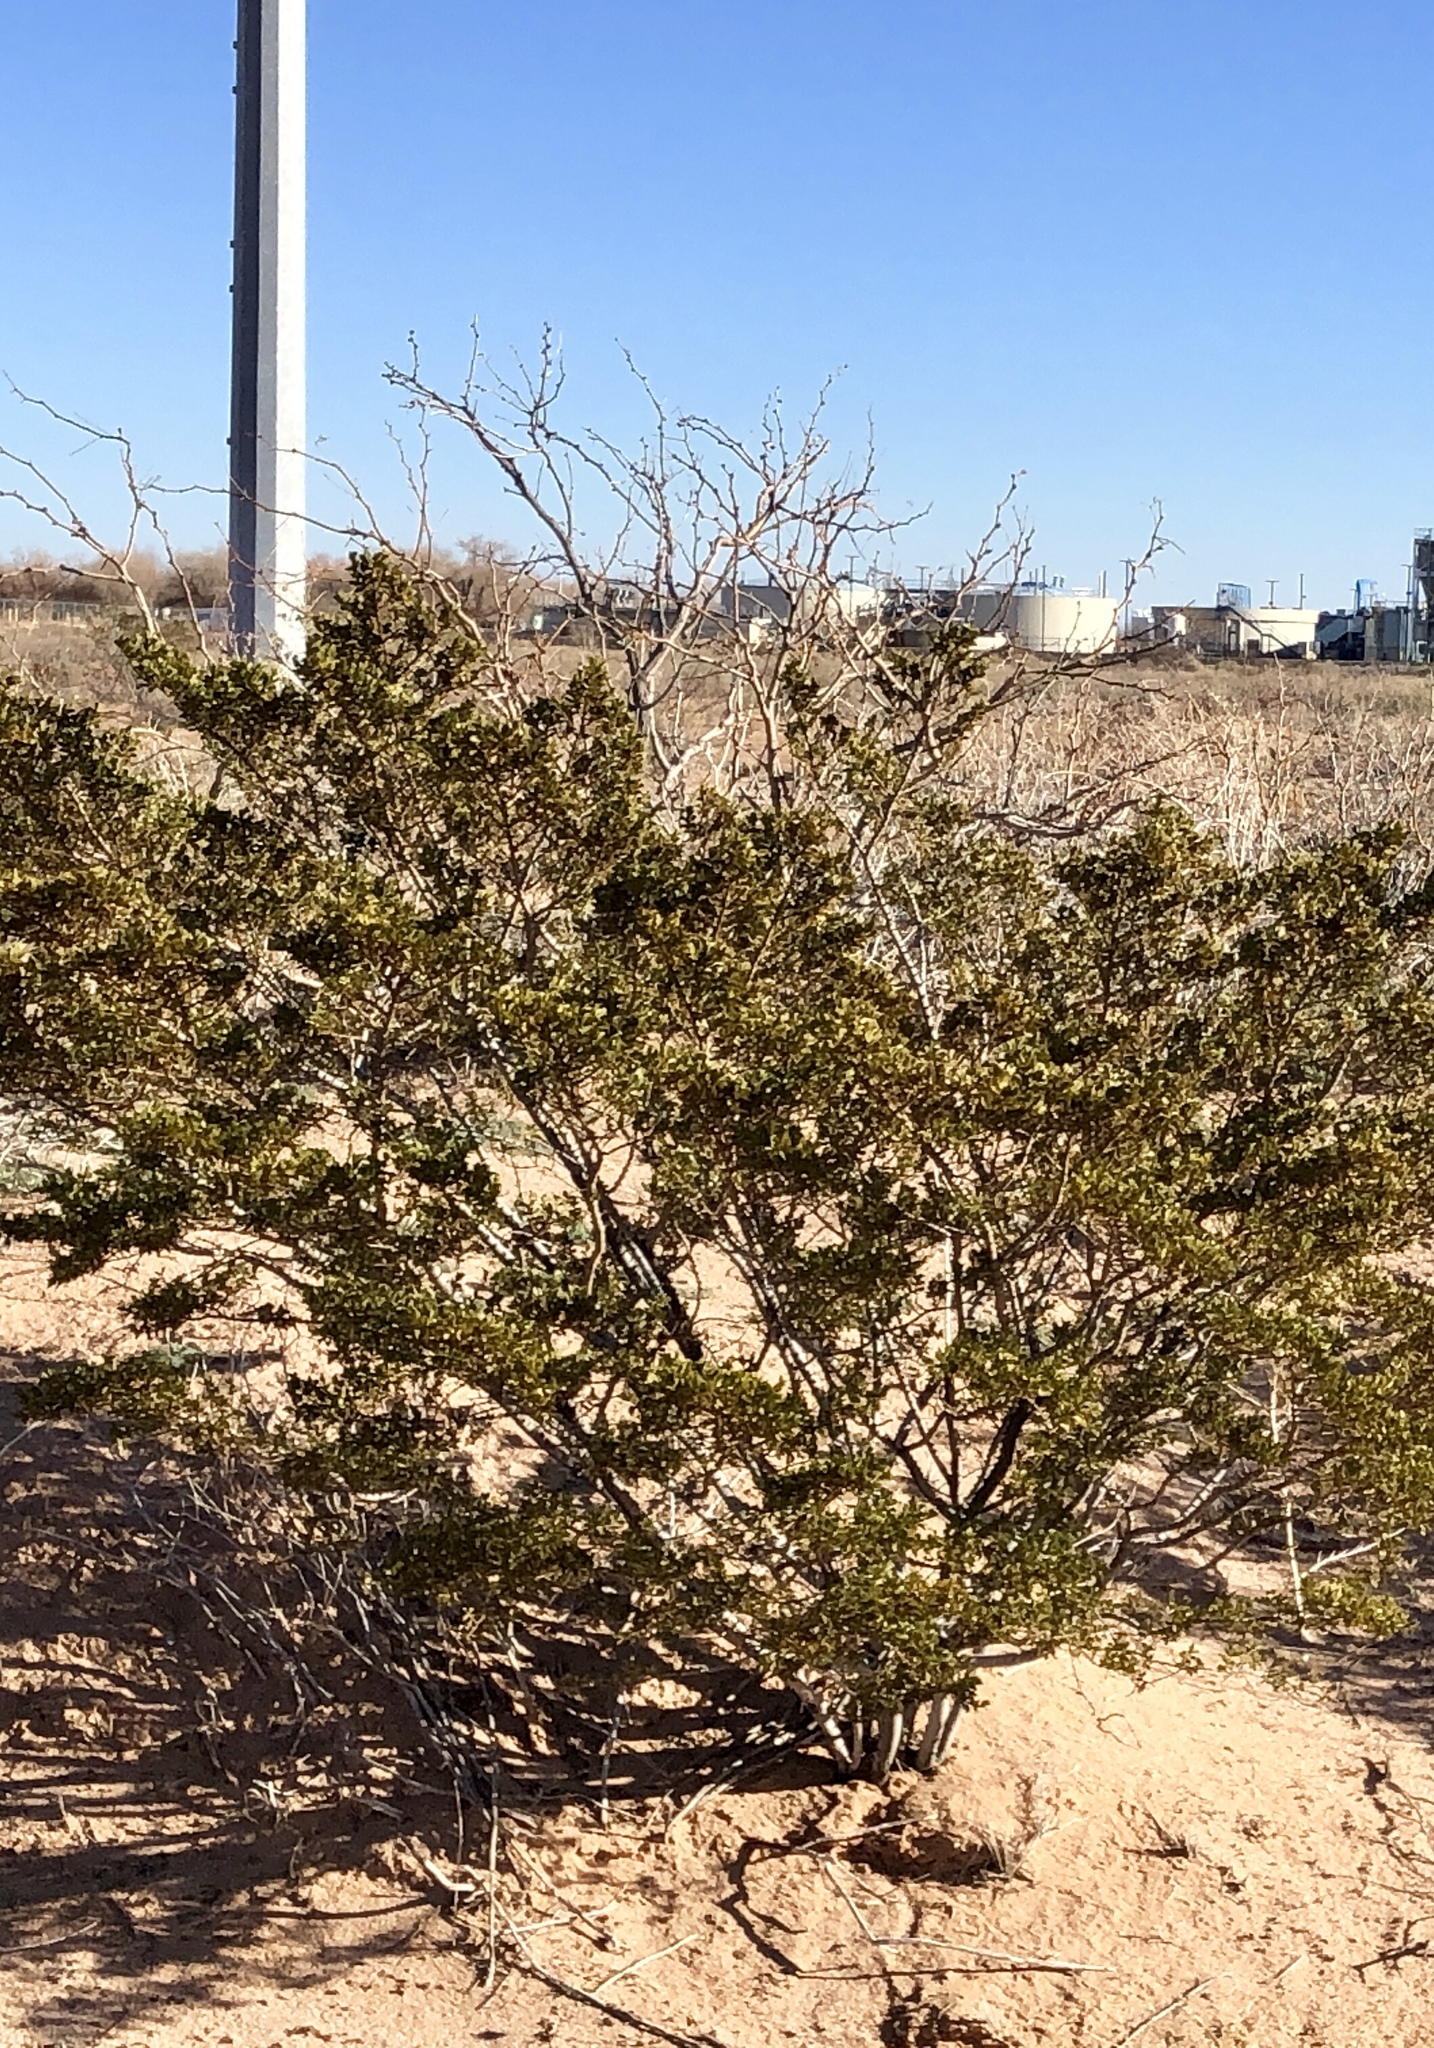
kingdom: Plantae
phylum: Tracheophyta
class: Magnoliopsida
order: Zygophyllales
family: Zygophyllaceae
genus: Larrea
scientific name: Larrea tridentata
